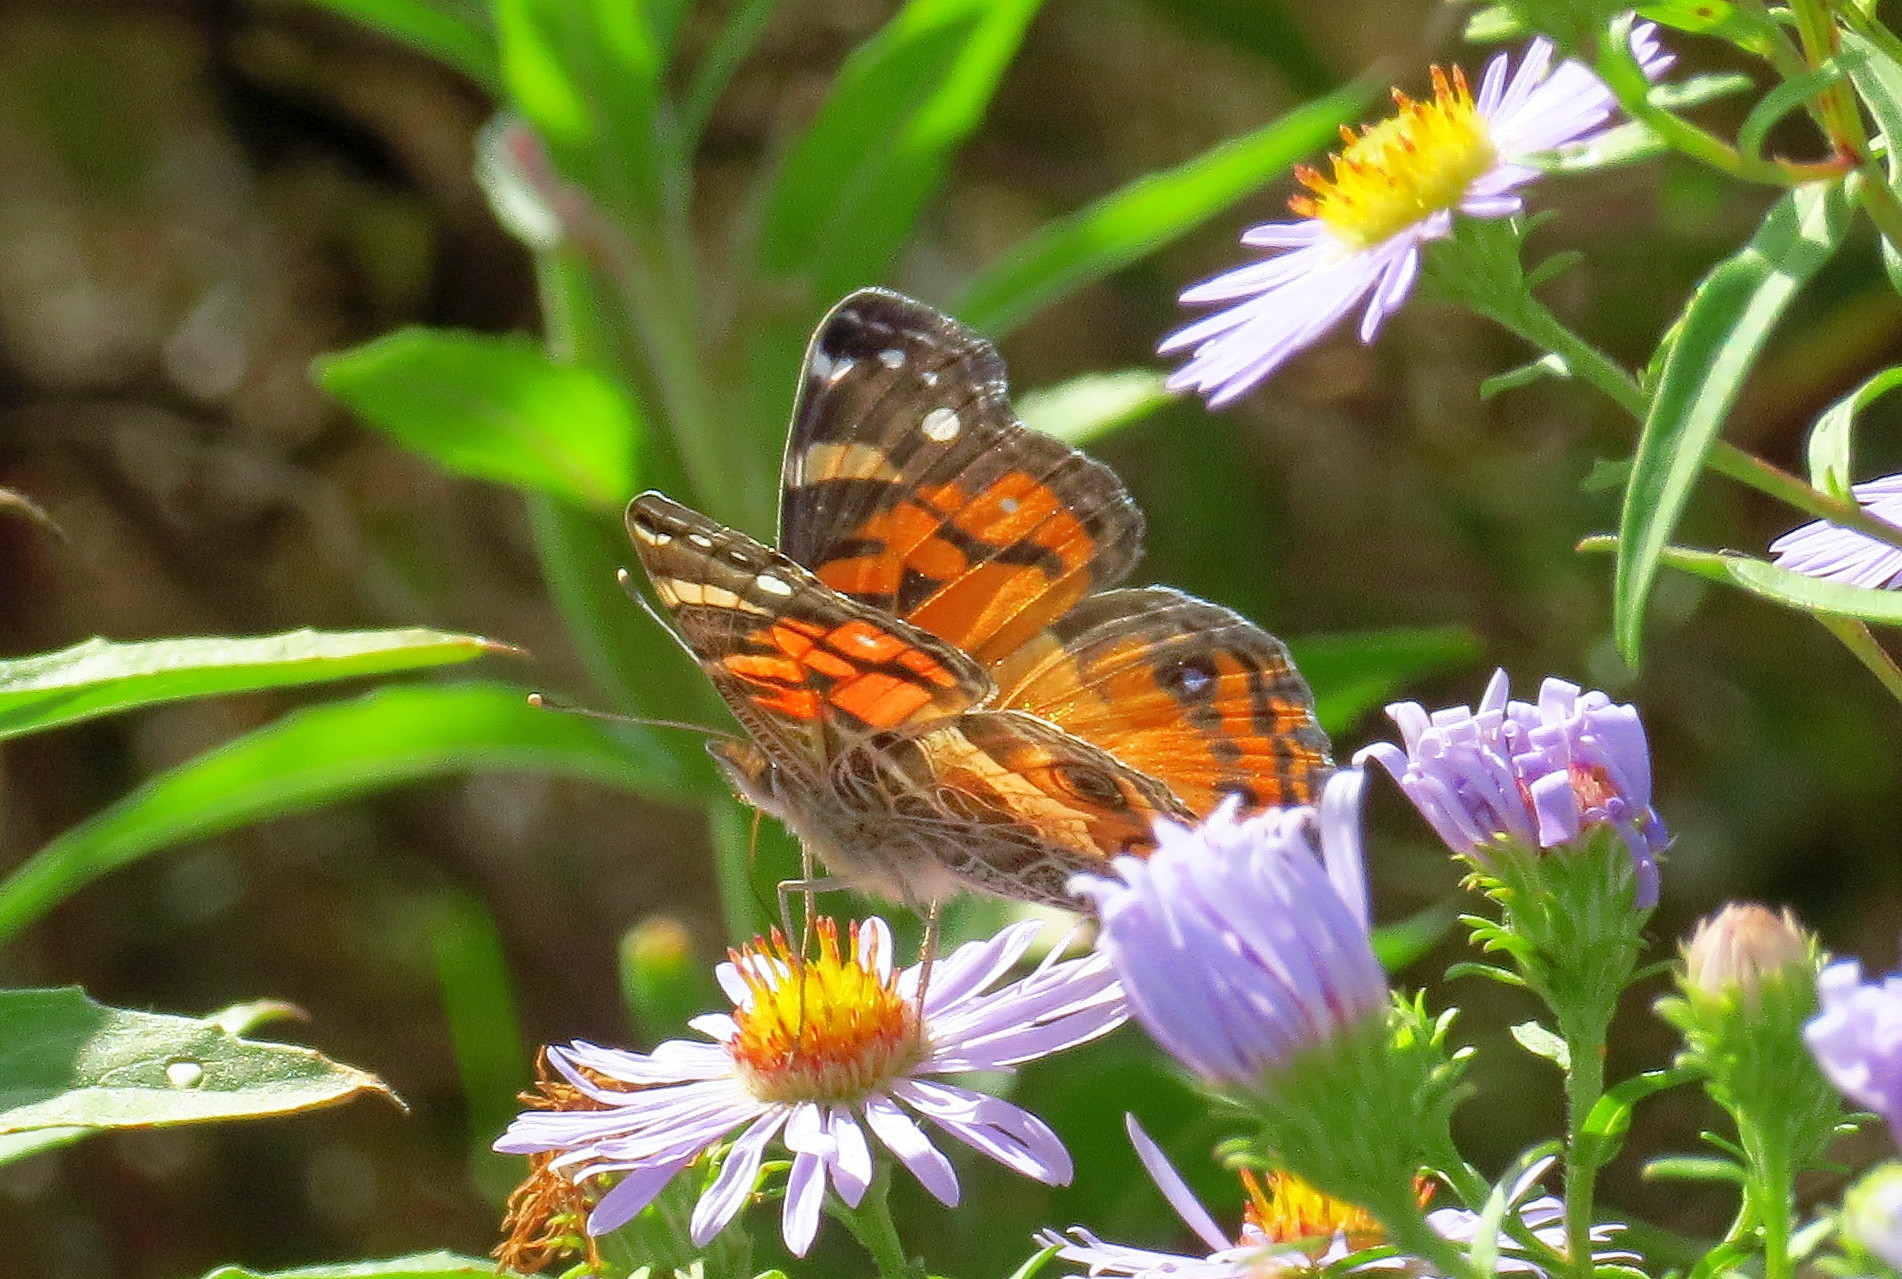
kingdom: Animalia
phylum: Arthropoda
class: Insecta
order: Lepidoptera
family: Nymphalidae
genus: Vanessa
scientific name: Vanessa virginiensis
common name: American lady
